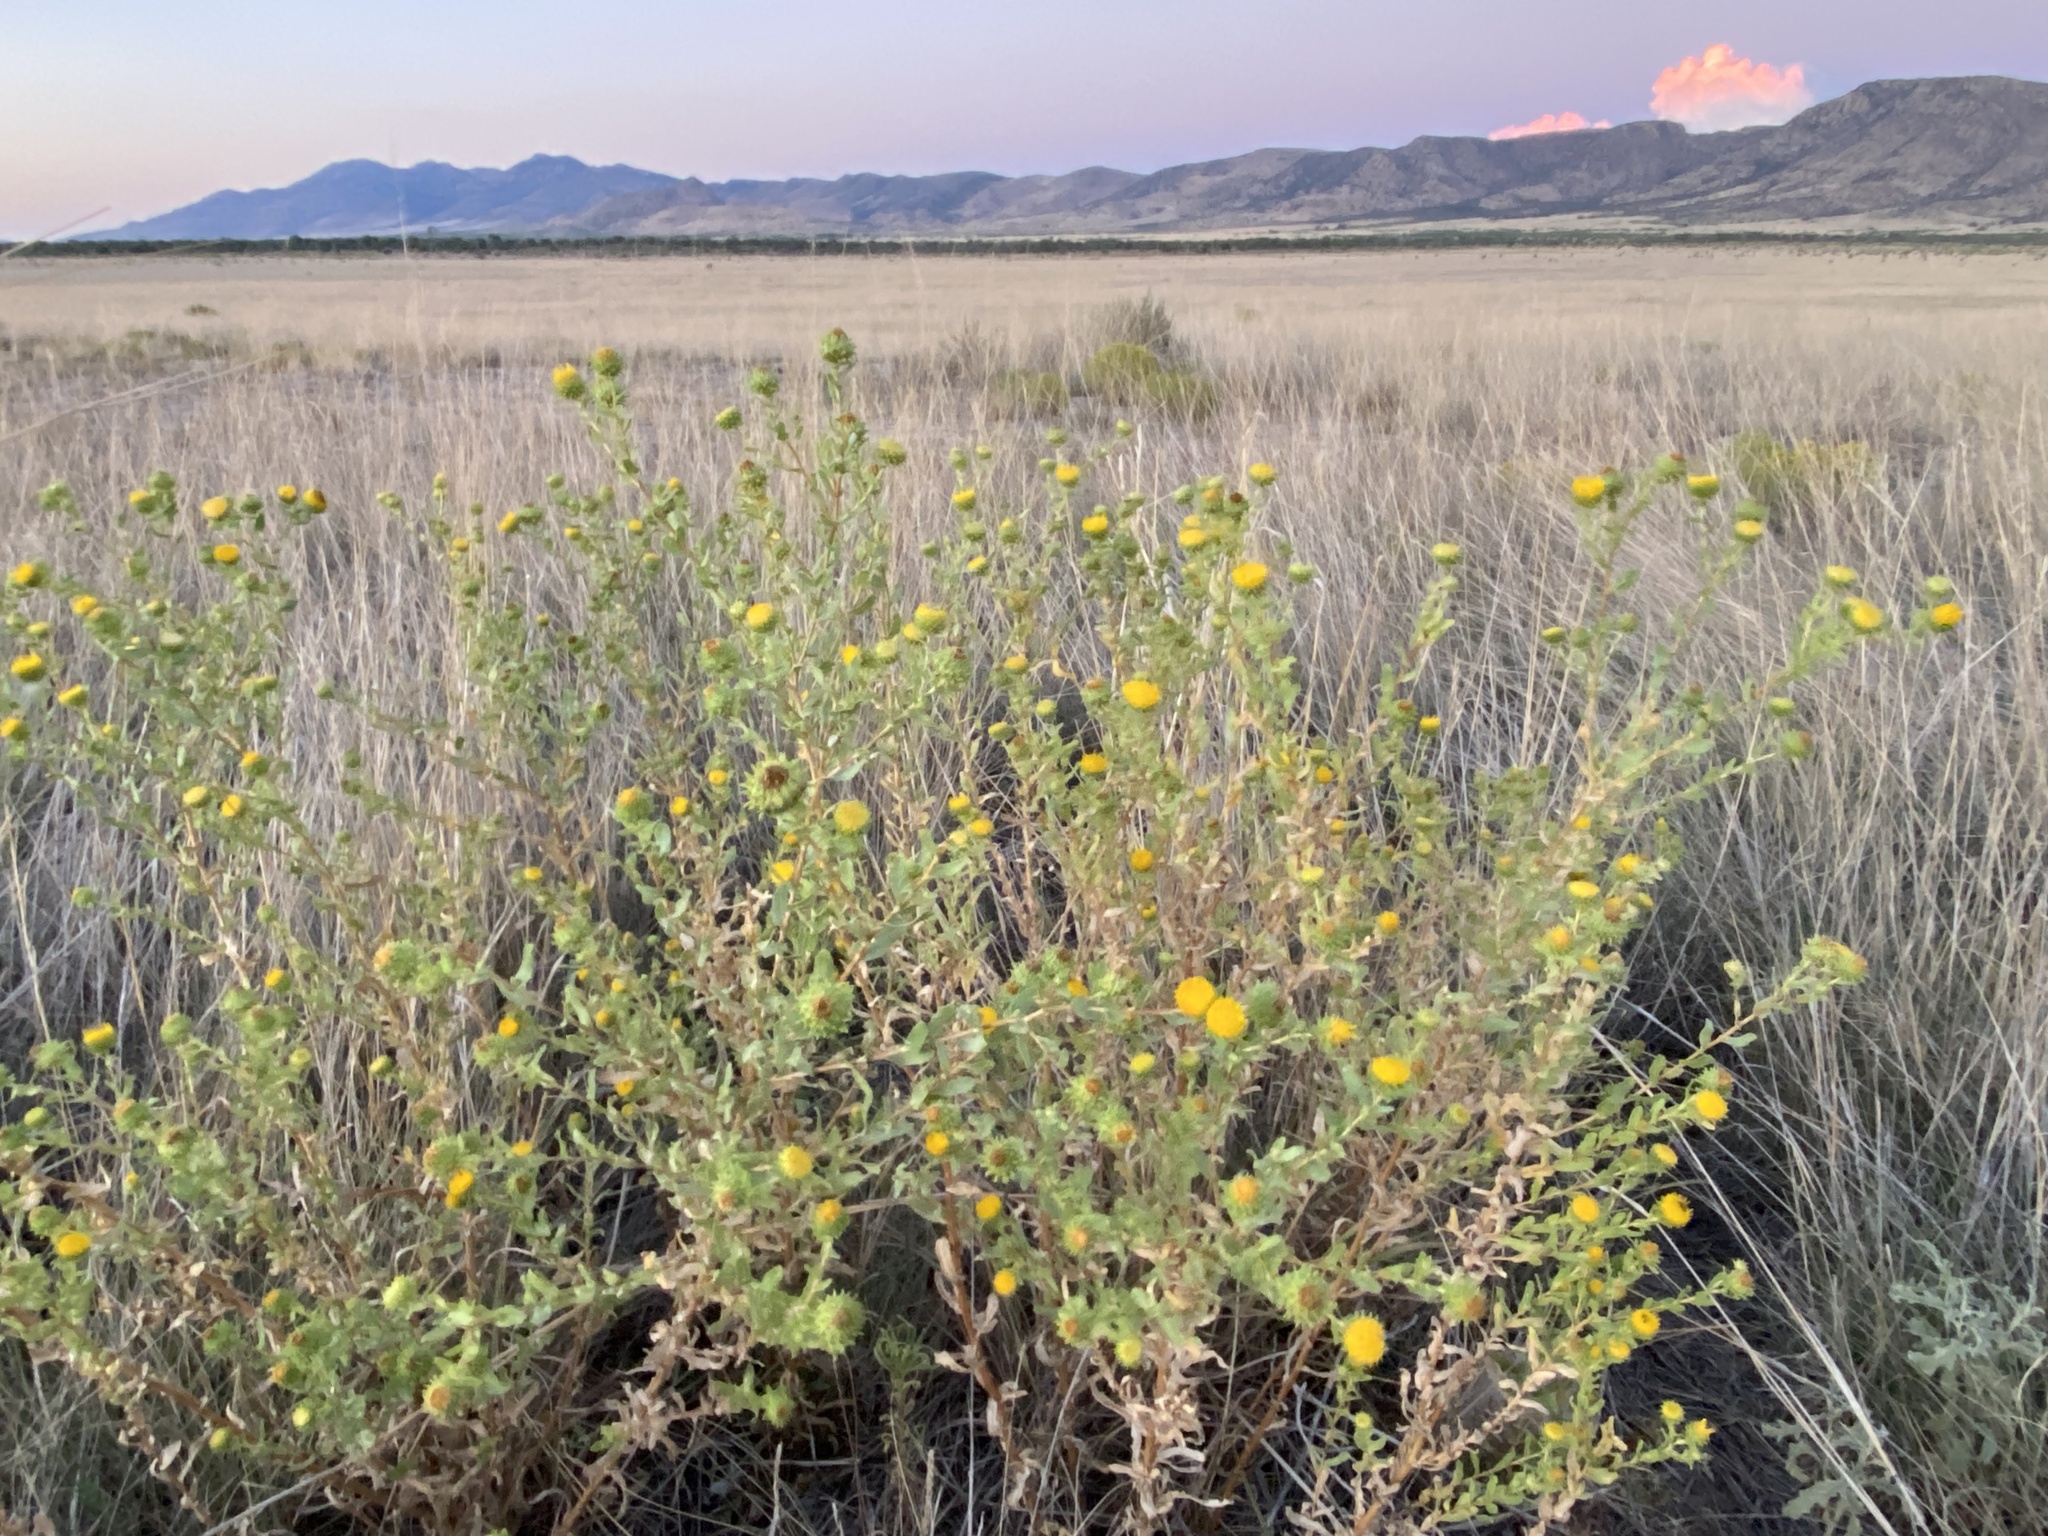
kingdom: Plantae
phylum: Tracheophyta
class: Magnoliopsida
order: Asterales
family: Asteraceae
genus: Grindelia
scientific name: Grindelia squarrosa
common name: Curly-cup gumweed
